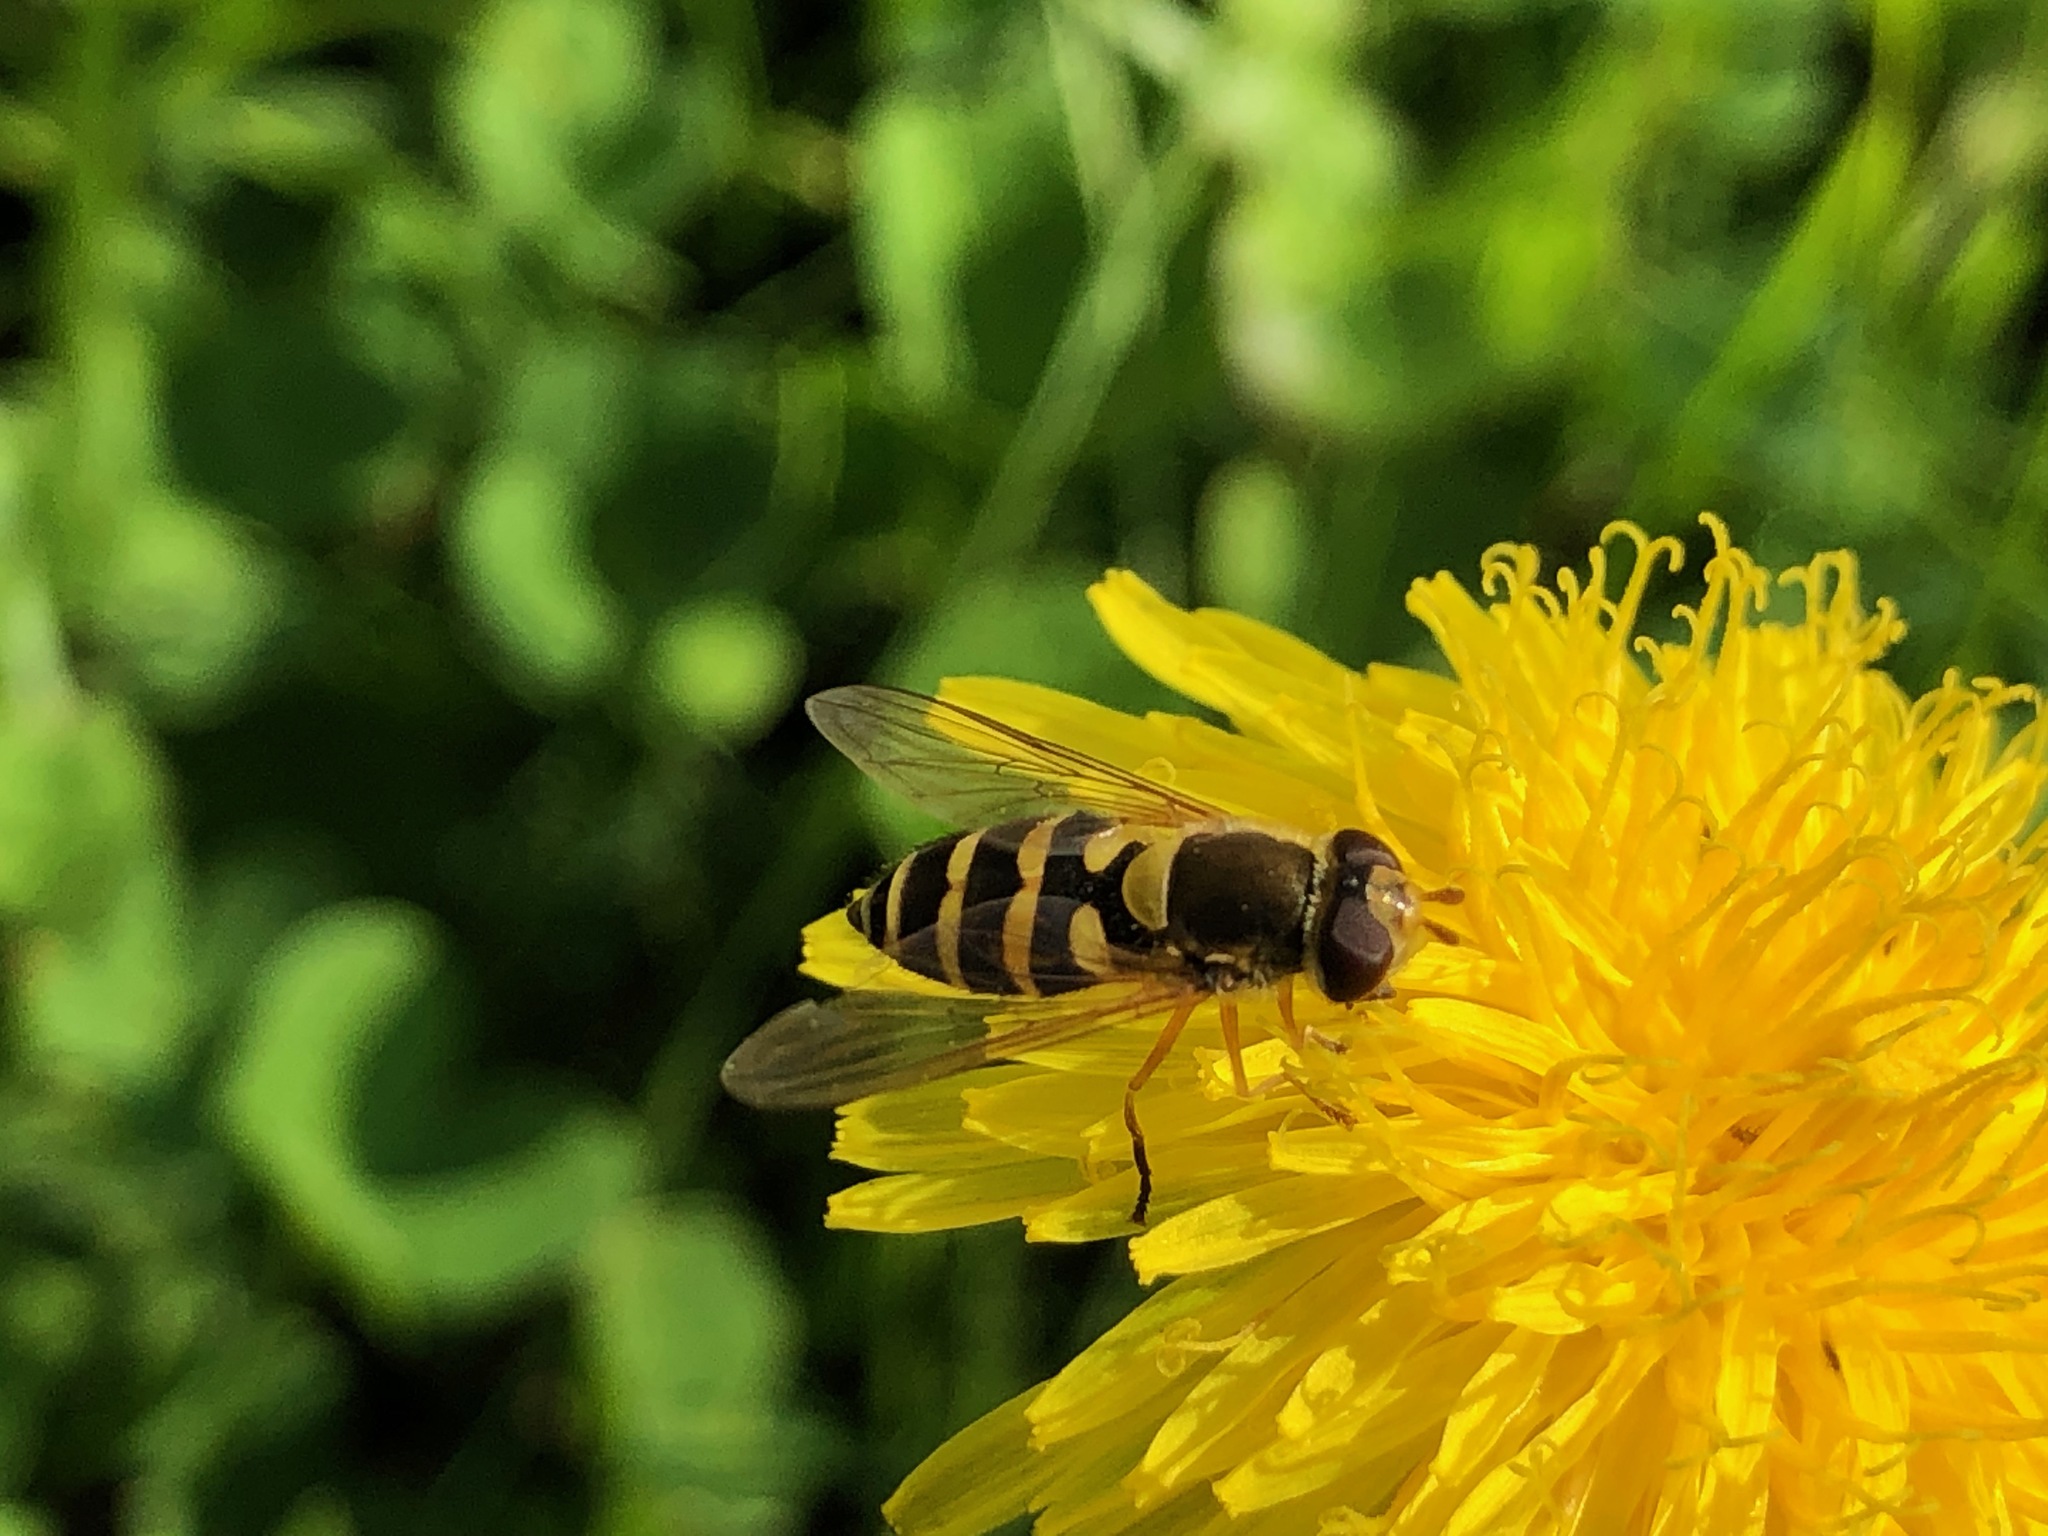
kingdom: Animalia
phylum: Arthropoda
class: Insecta
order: Diptera
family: Syrphidae
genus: Syrphus
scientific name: Syrphus ribesii
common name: Common flower fly
